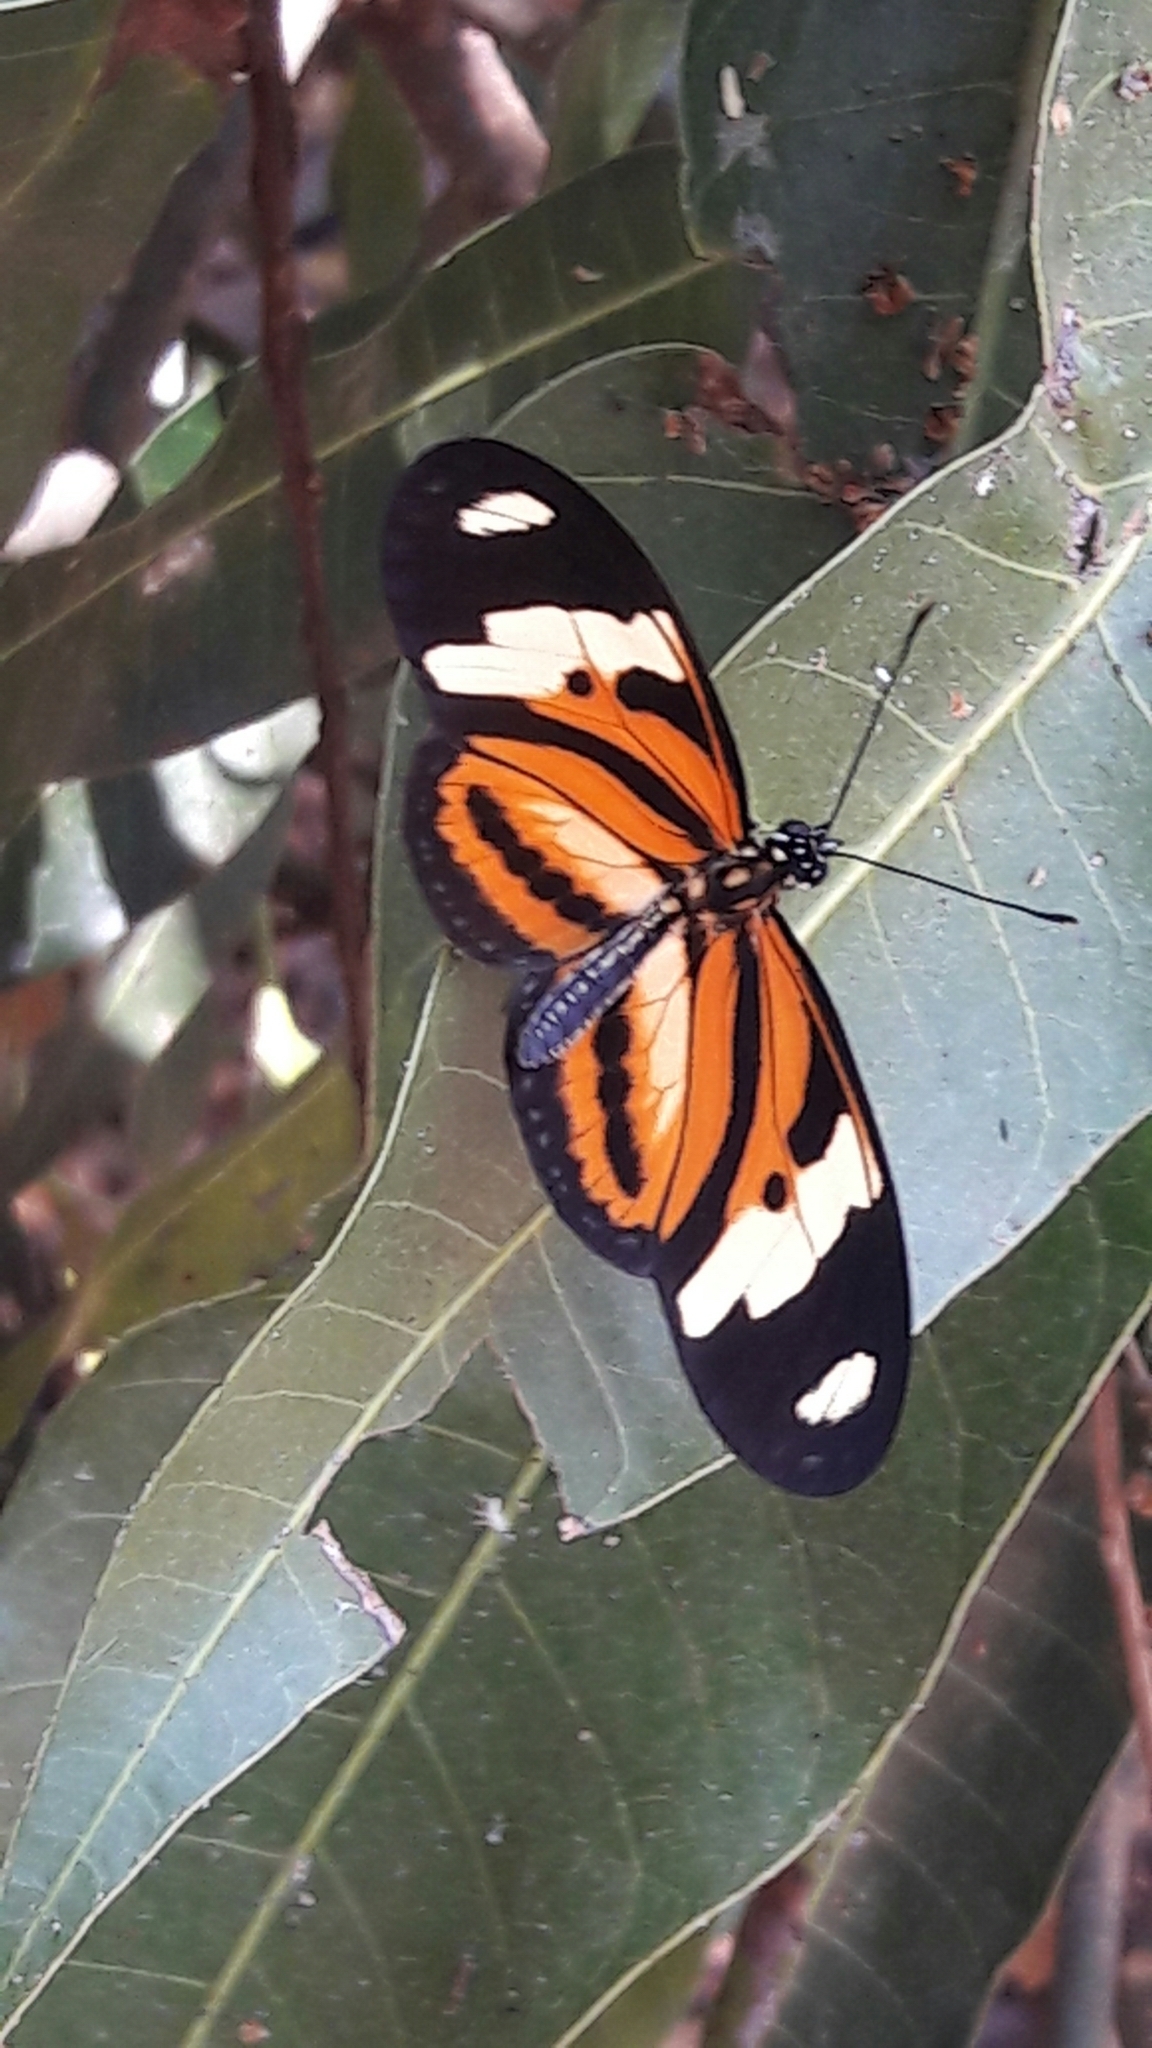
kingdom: Animalia
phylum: Arthropoda
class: Insecta
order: Lepidoptera
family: Nymphalidae
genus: Heliconius
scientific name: Heliconius ethilla
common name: Ethilia longwing
